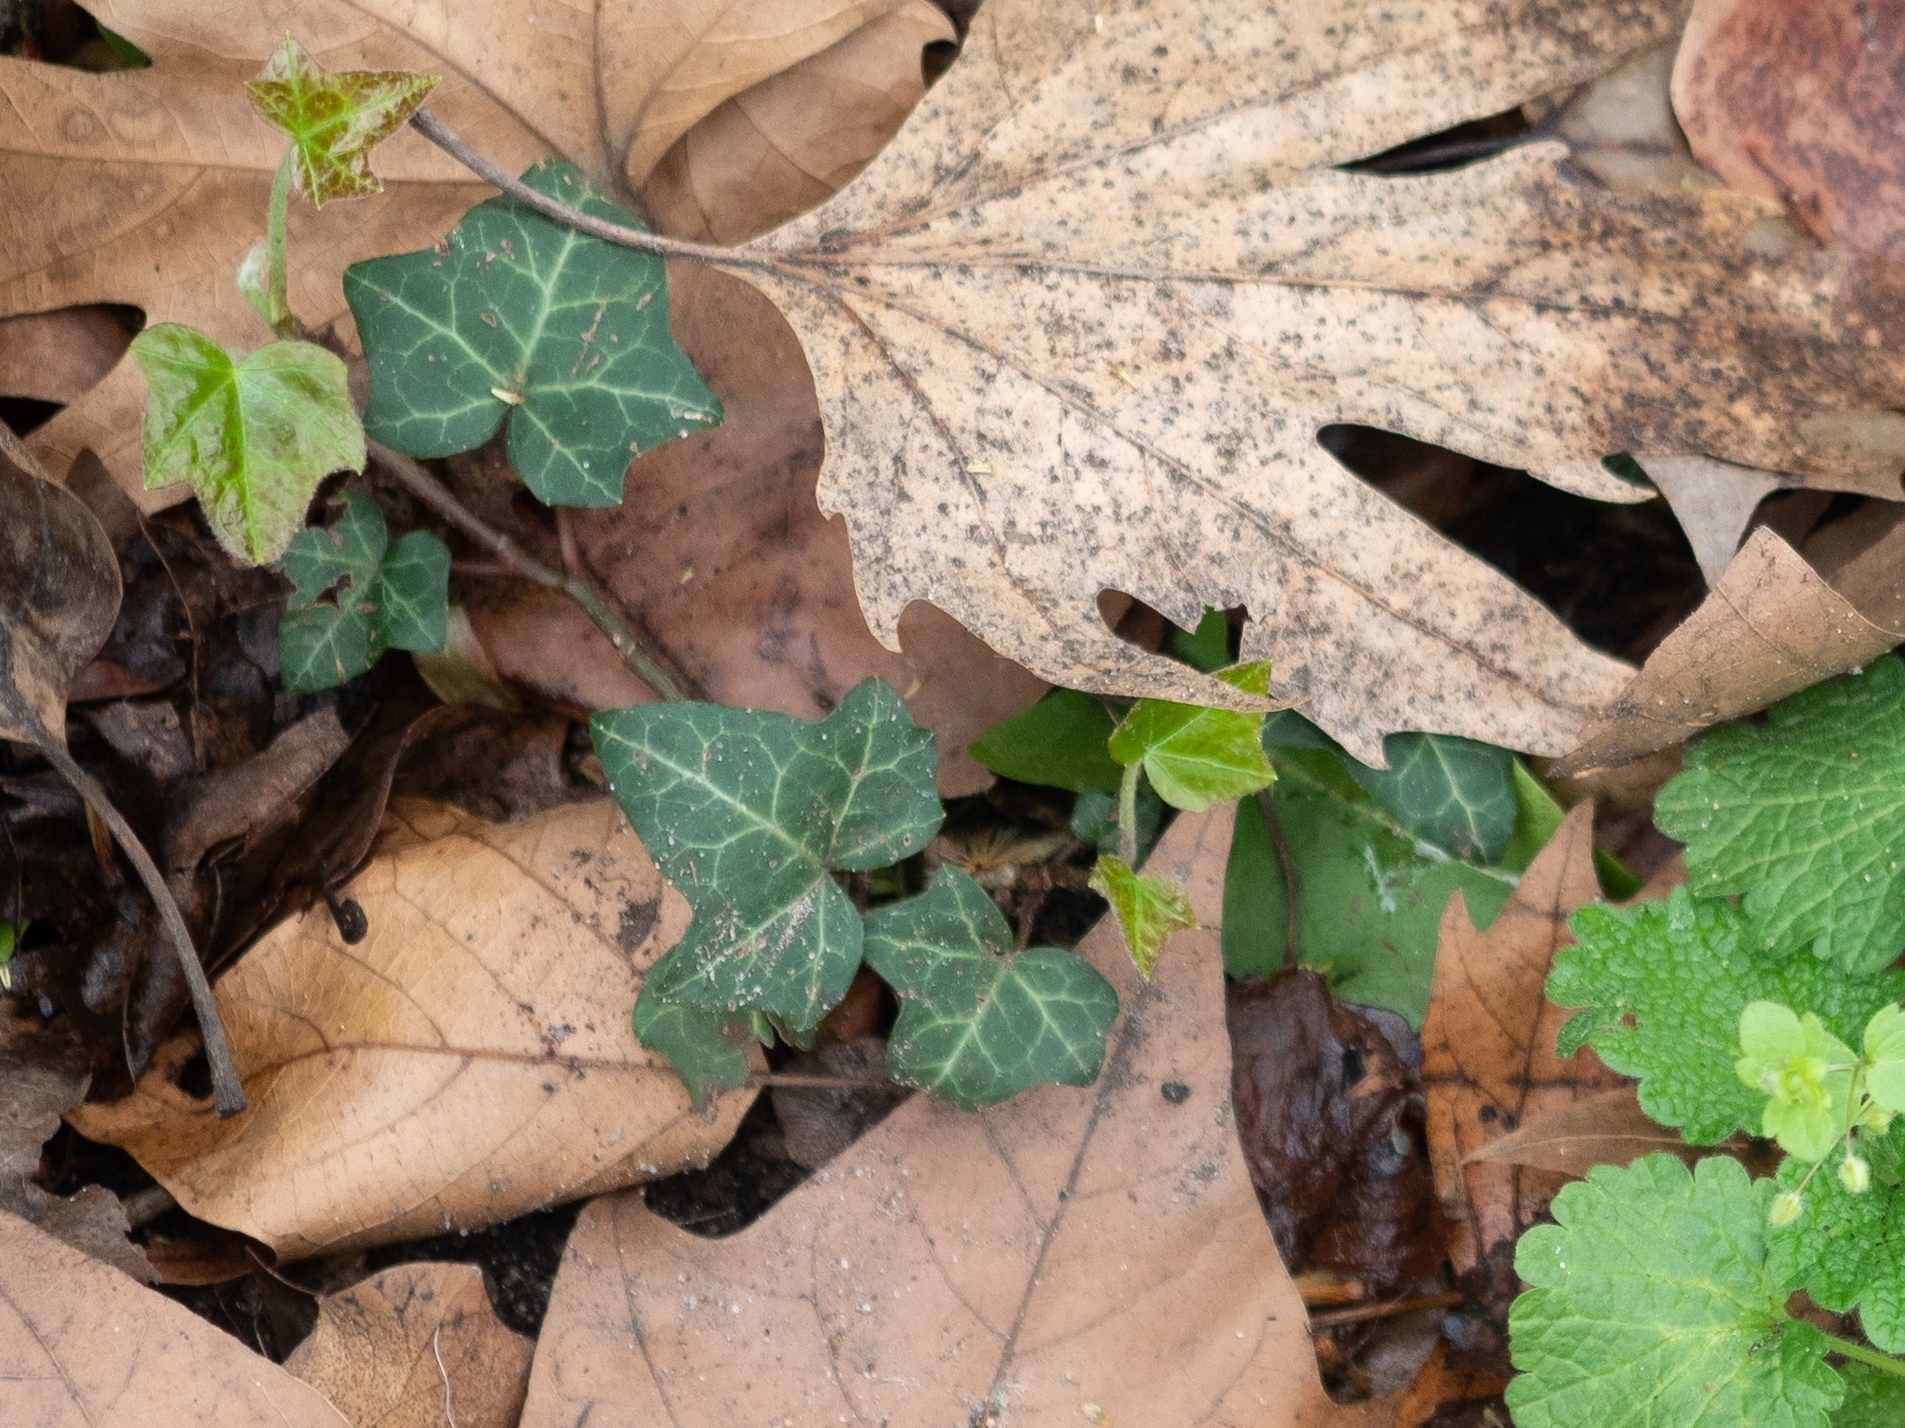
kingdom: Plantae
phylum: Tracheophyta
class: Magnoliopsida
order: Apiales
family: Araliaceae
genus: Hedera
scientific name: Hedera helix
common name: Ivy
